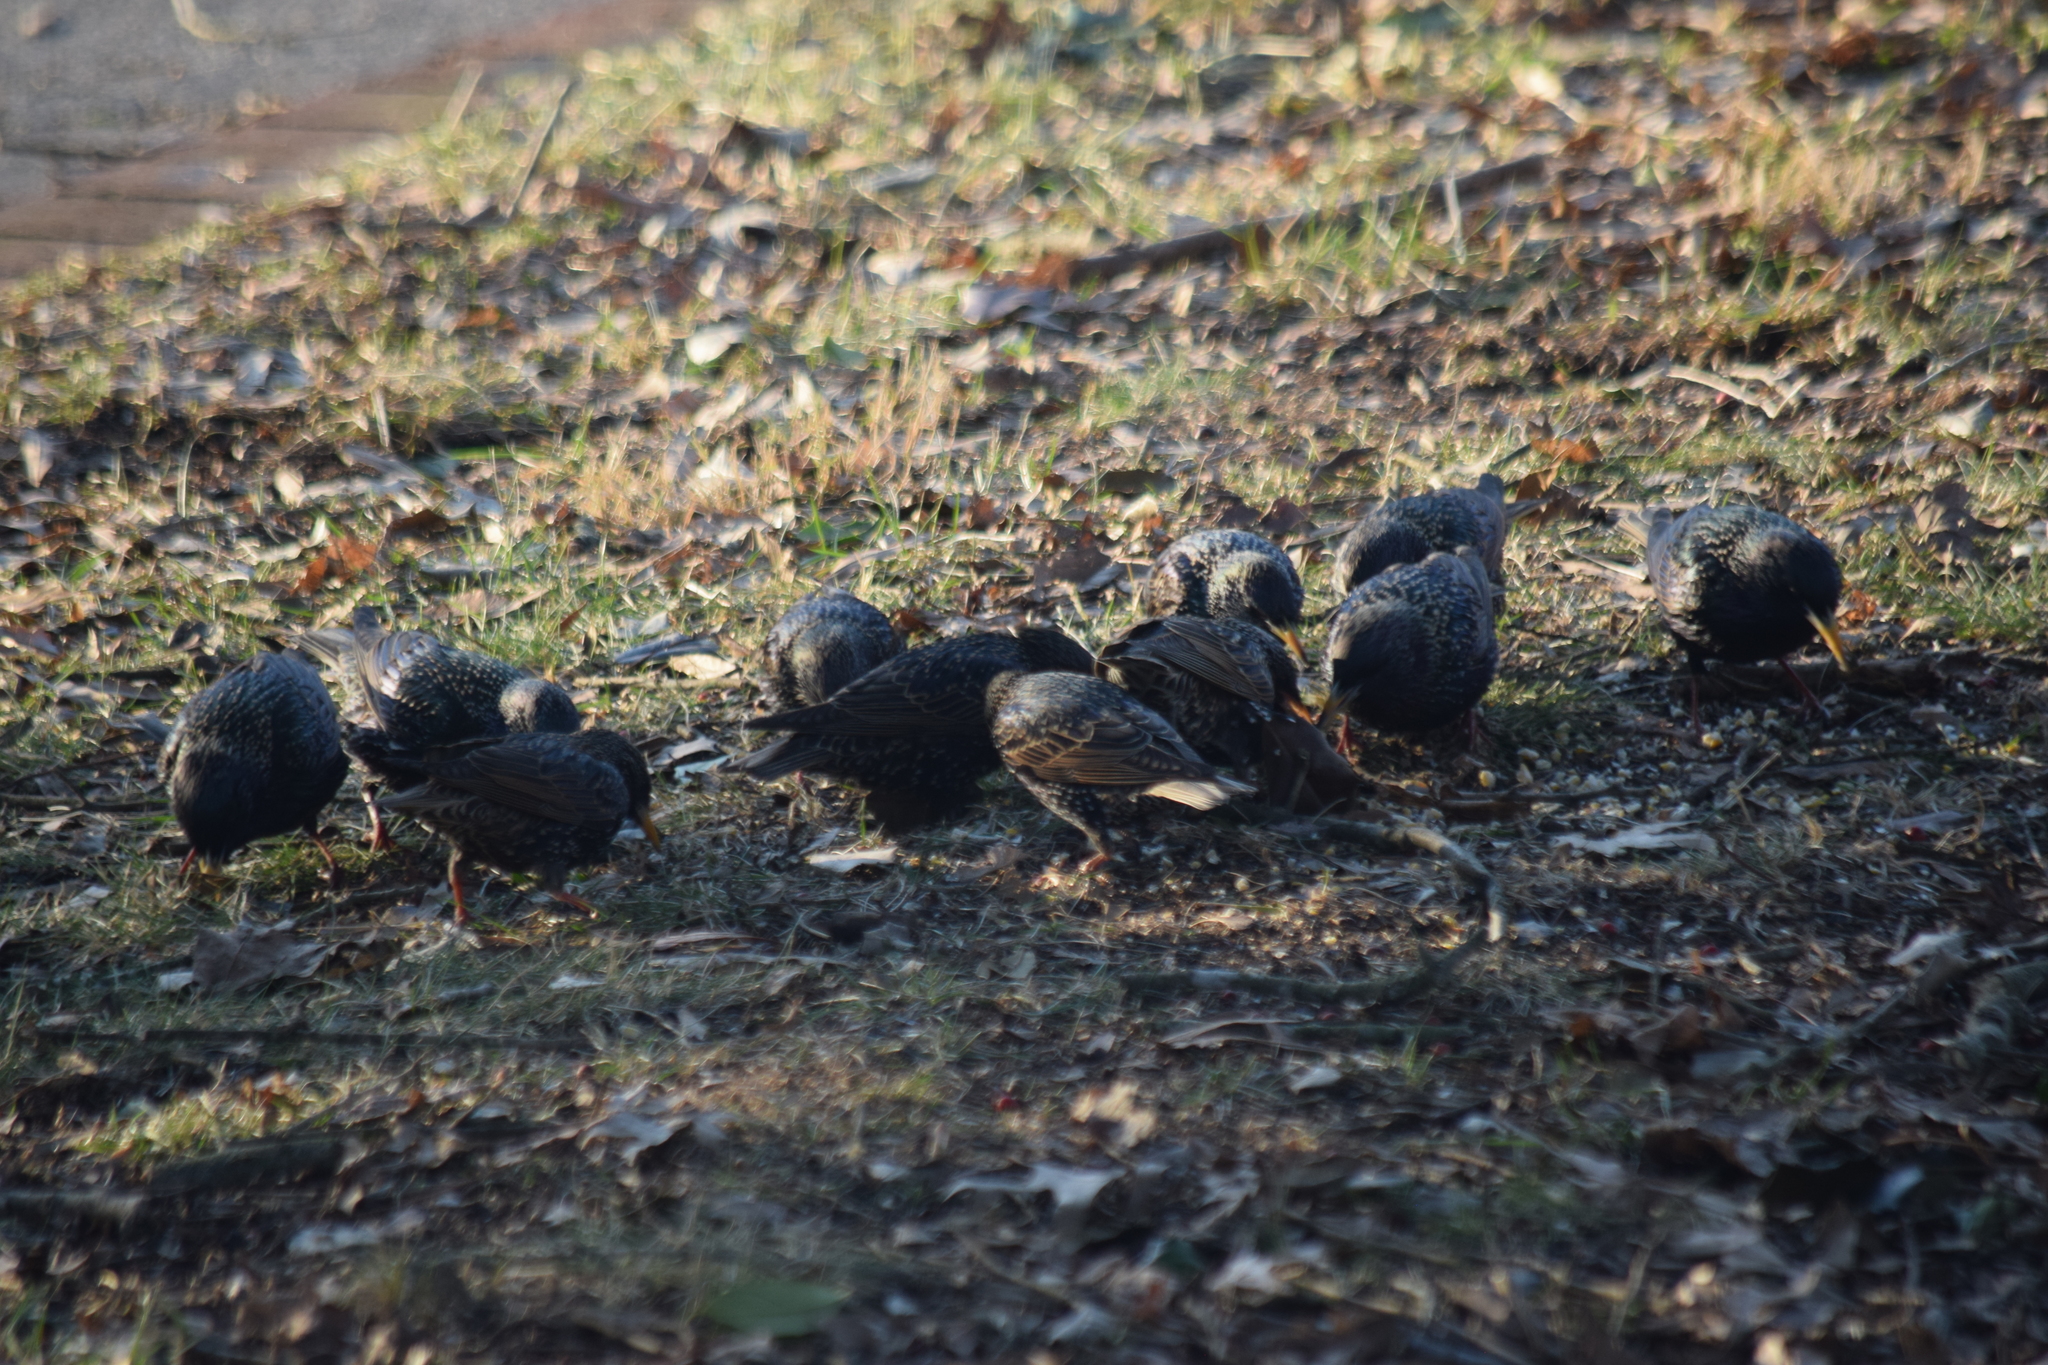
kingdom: Animalia
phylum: Chordata
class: Aves
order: Passeriformes
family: Sturnidae
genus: Sturnus
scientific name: Sturnus vulgaris
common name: Common starling
